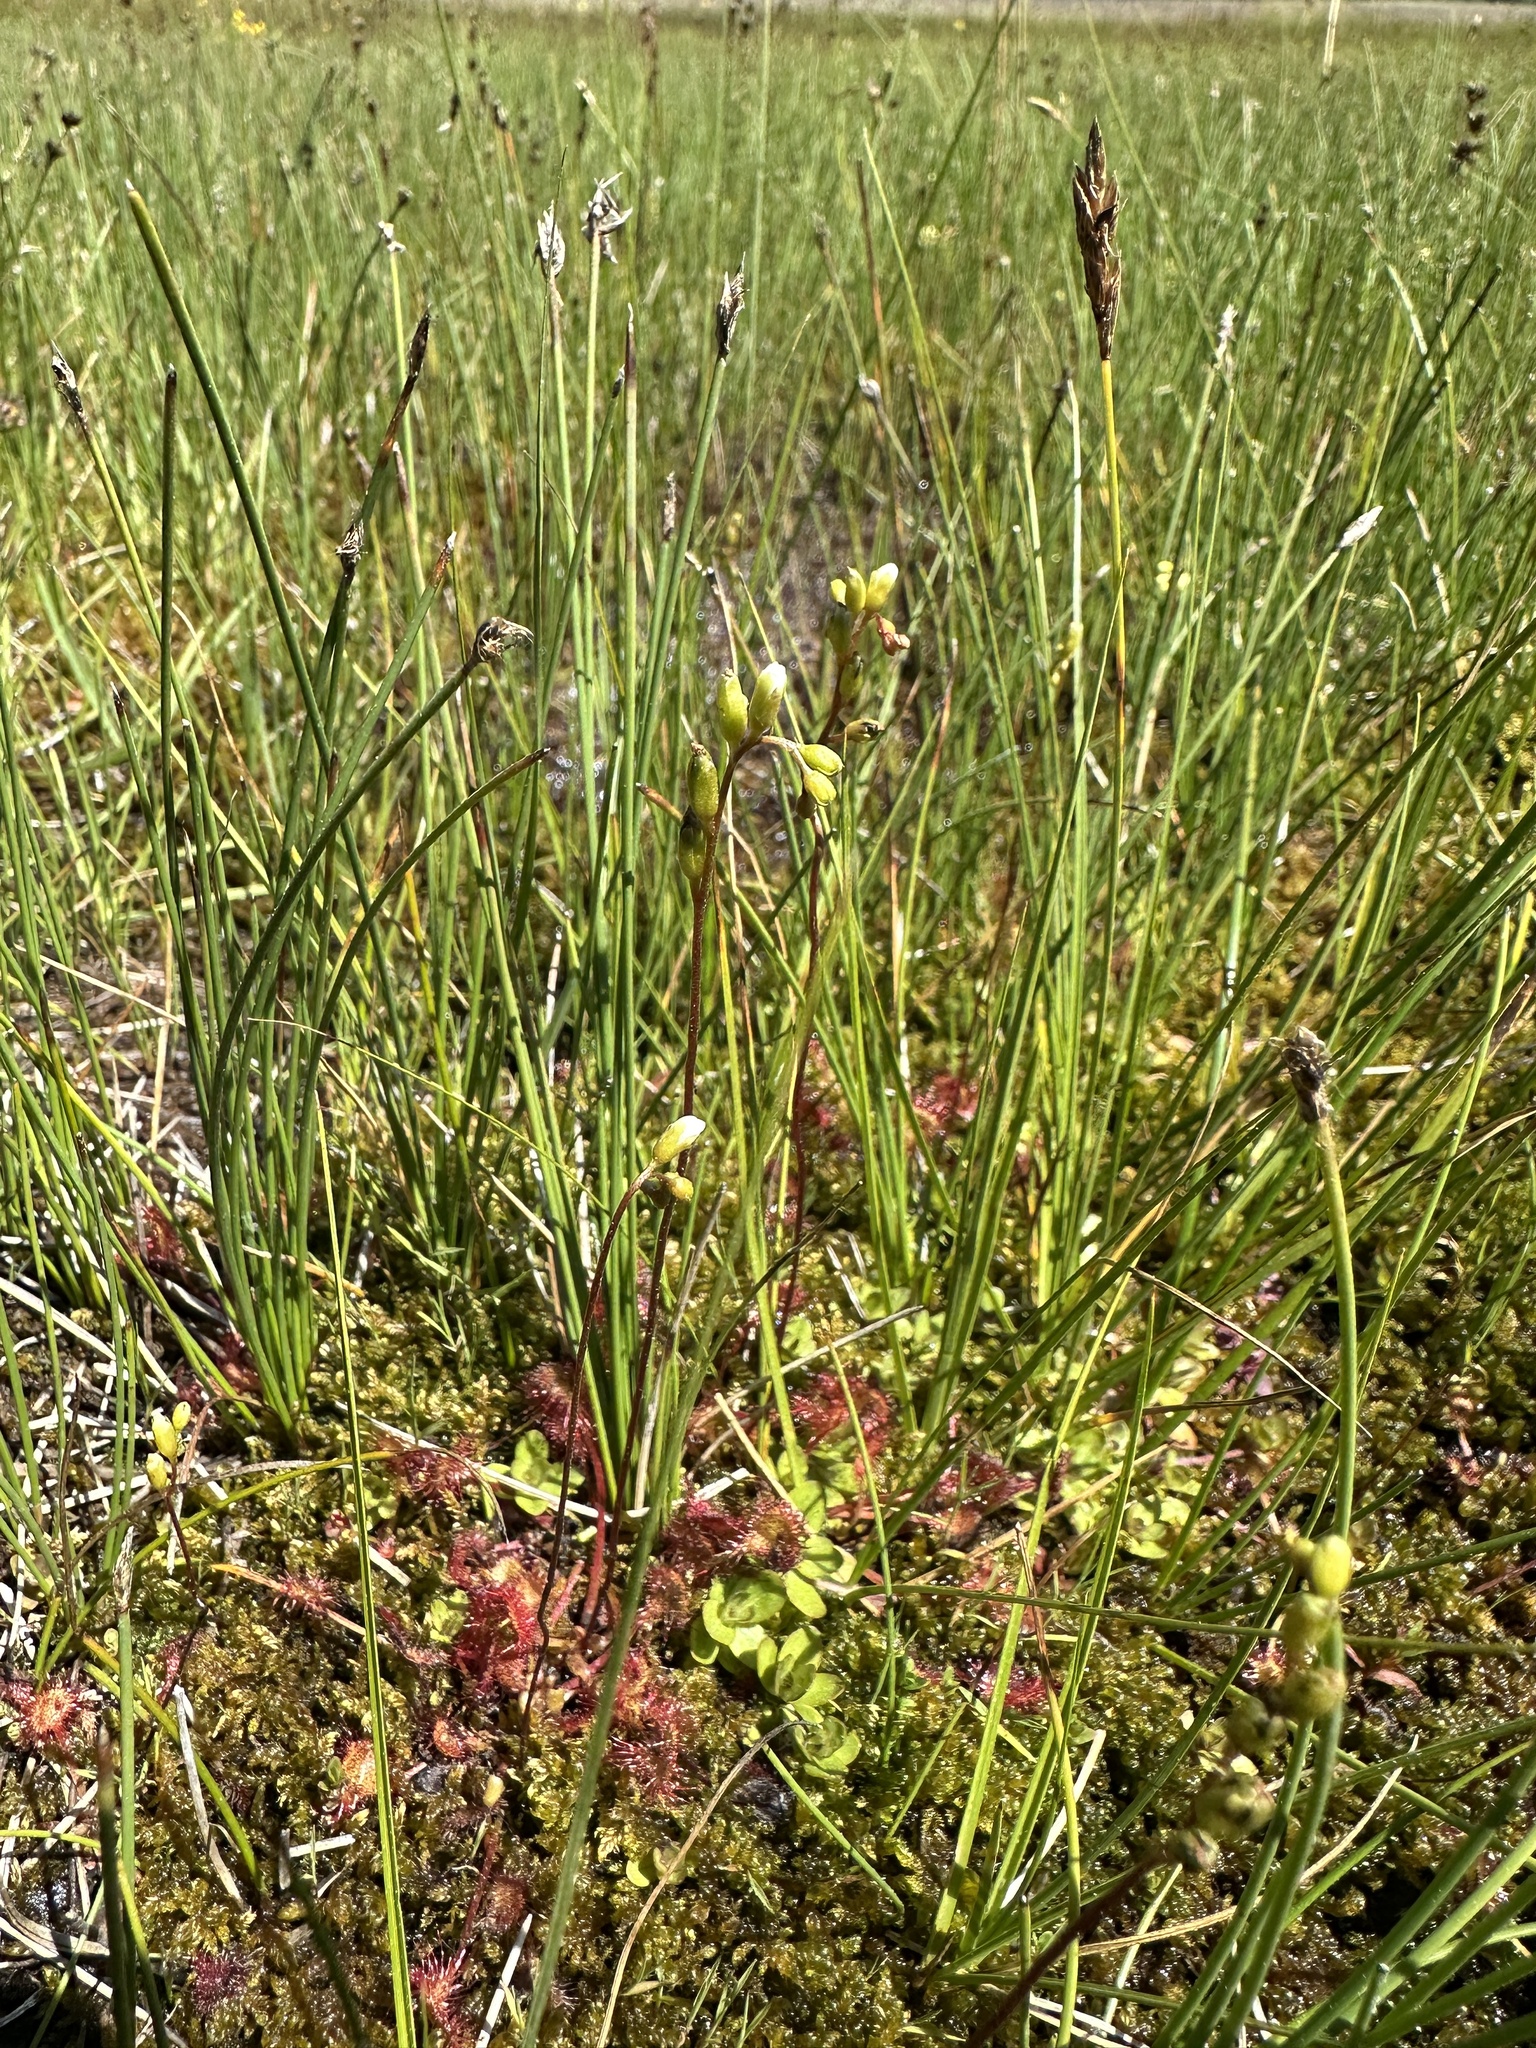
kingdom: Plantae
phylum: Tracheophyta
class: Magnoliopsida
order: Caryophyllales
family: Droseraceae
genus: Drosera
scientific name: Drosera rotundifolia
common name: Round-leaved sundew
